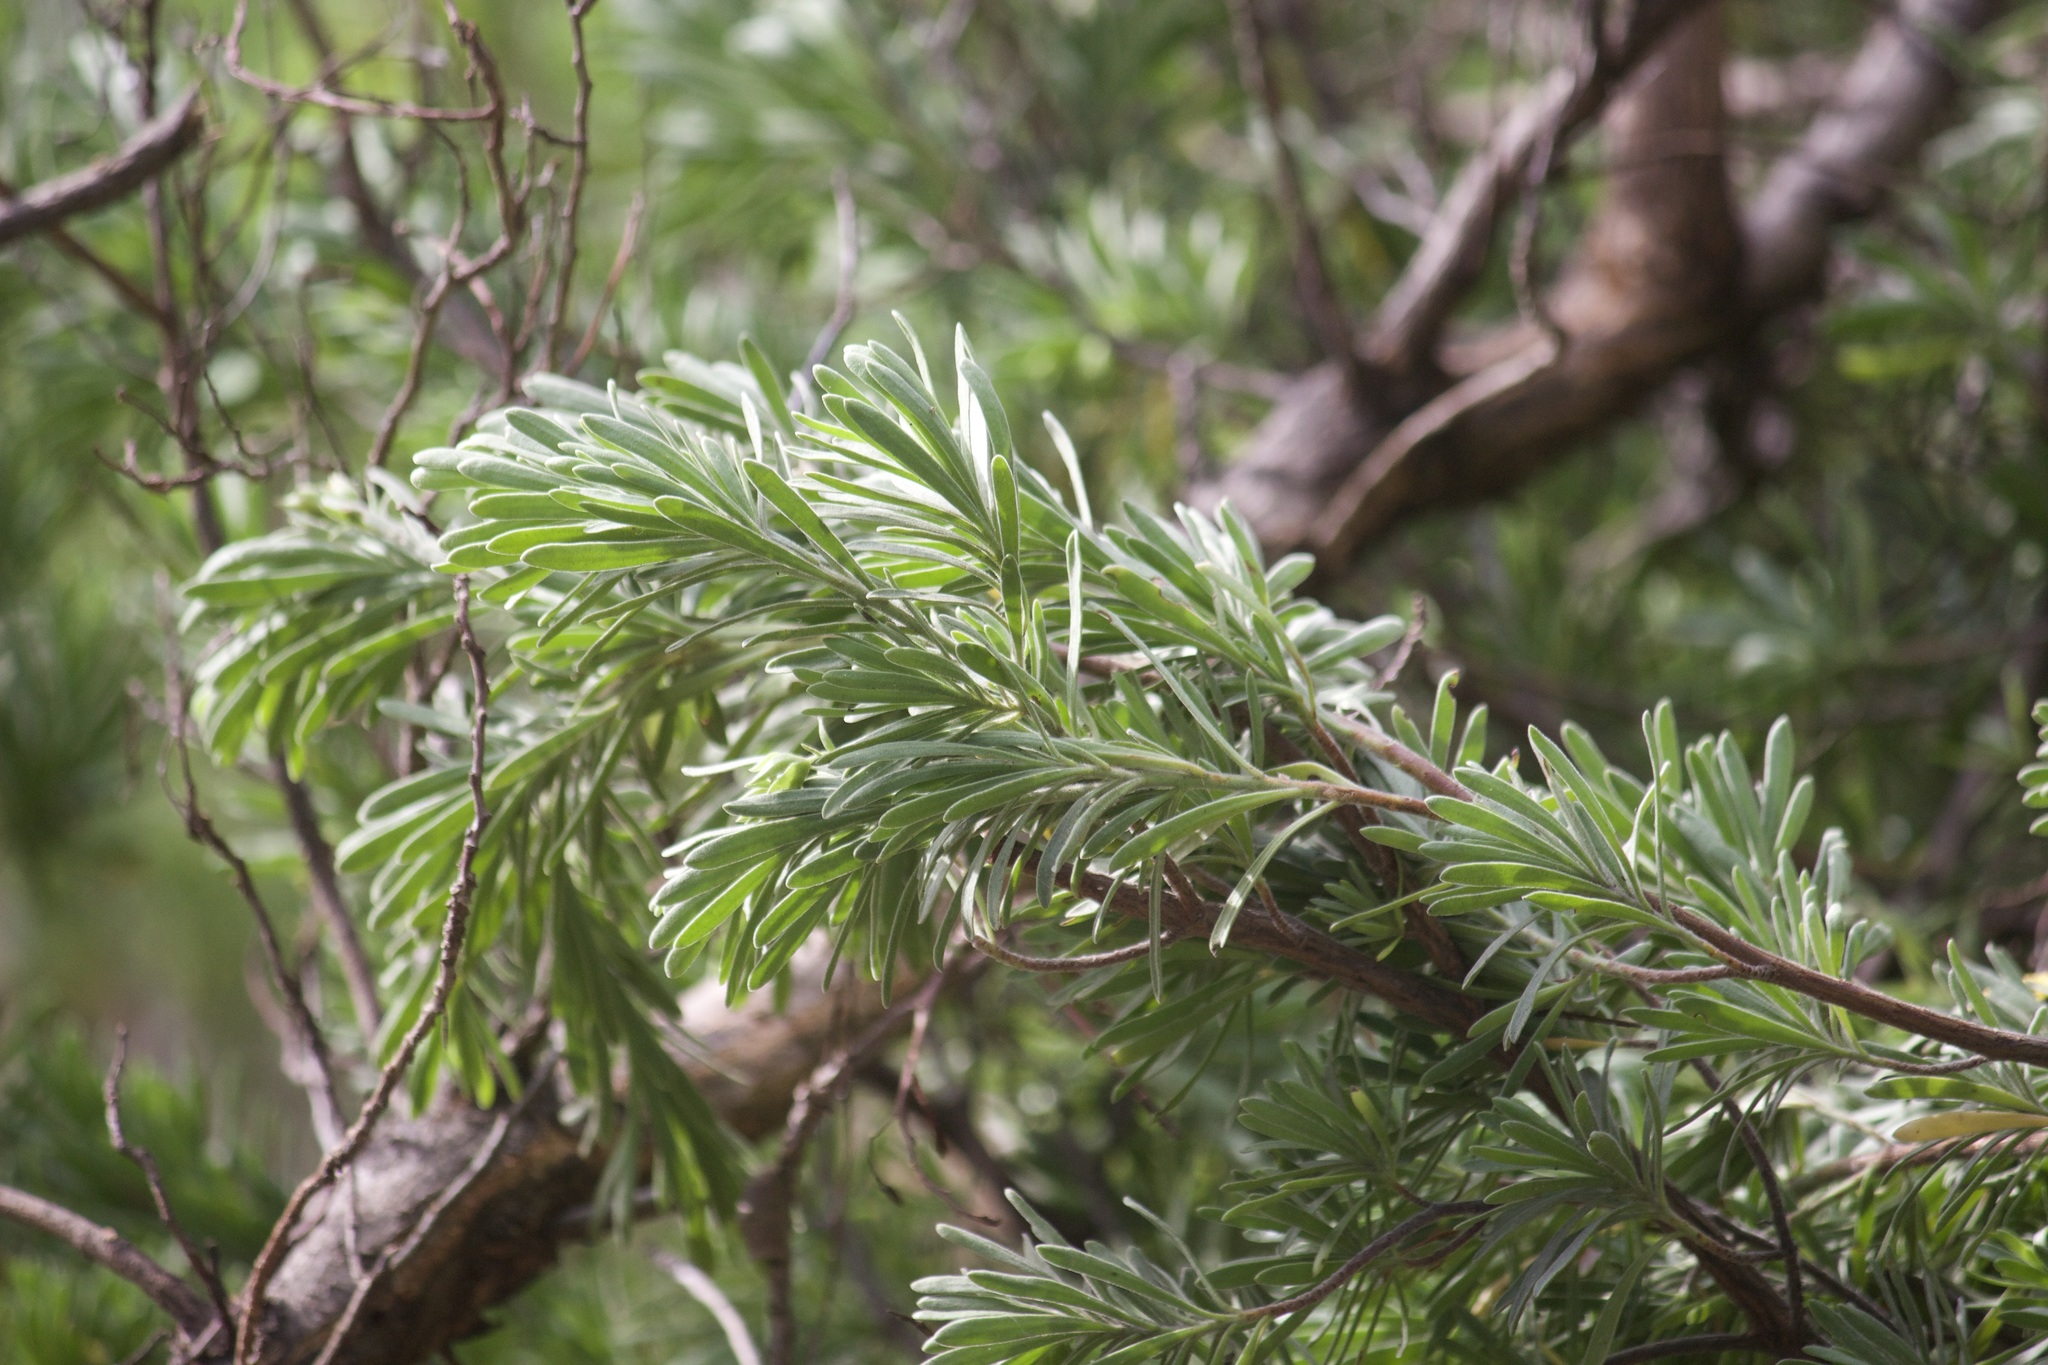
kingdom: Plantae
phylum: Tracheophyta
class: Magnoliopsida
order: Fabales
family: Surianaceae
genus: Suriana
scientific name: Suriana maritima
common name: Bay-cedar
